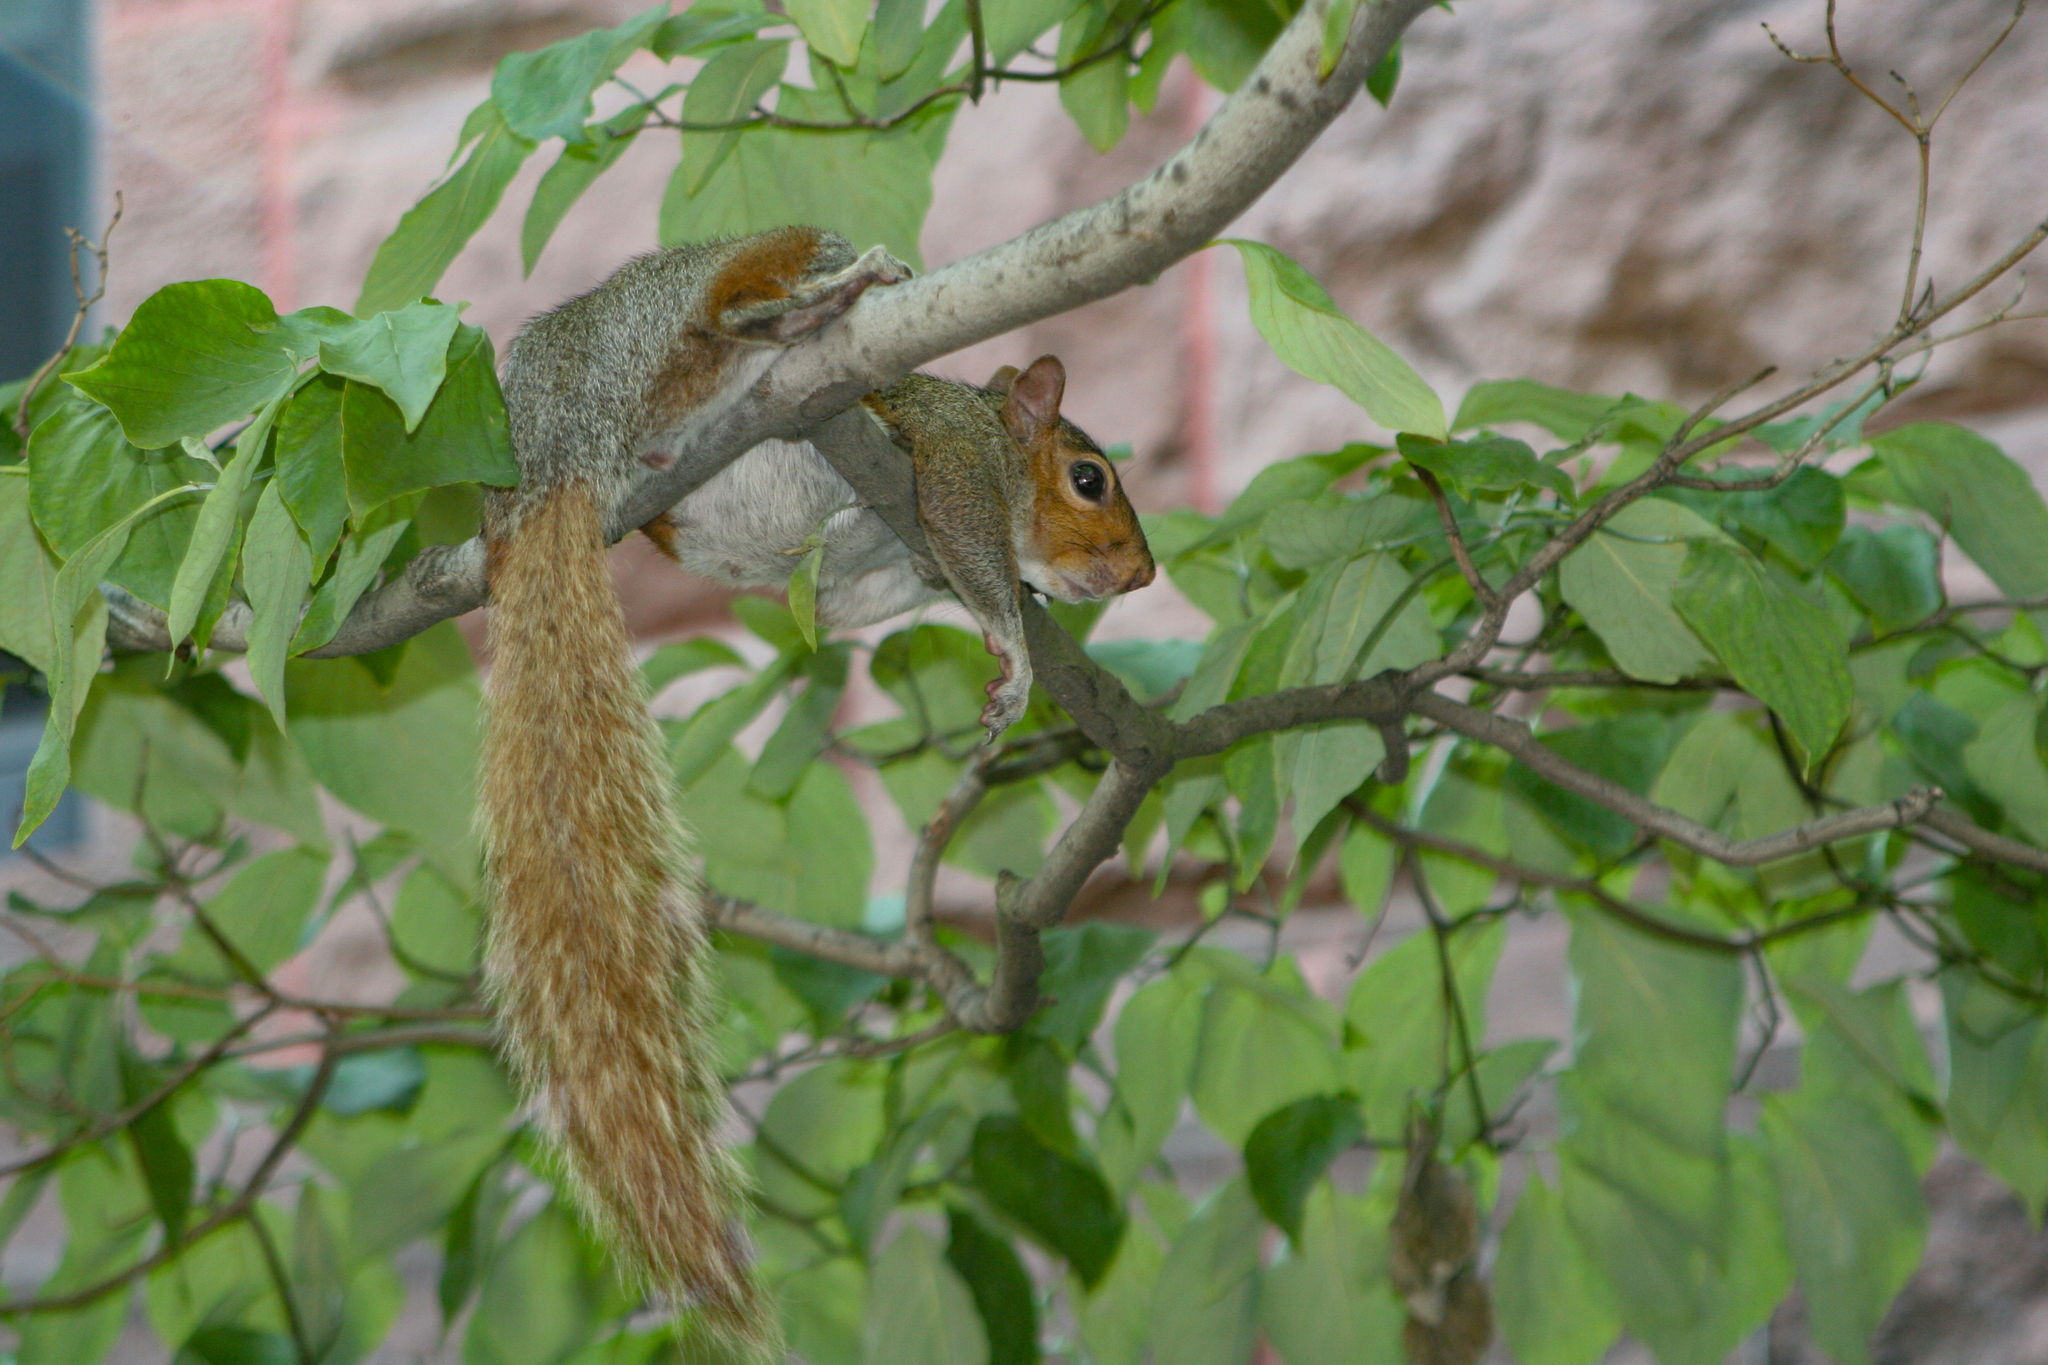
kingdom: Animalia
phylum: Chordata
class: Mammalia
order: Rodentia
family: Sciuridae
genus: Sciurus
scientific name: Sciurus carolinensis
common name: Eastern gray squirrel
